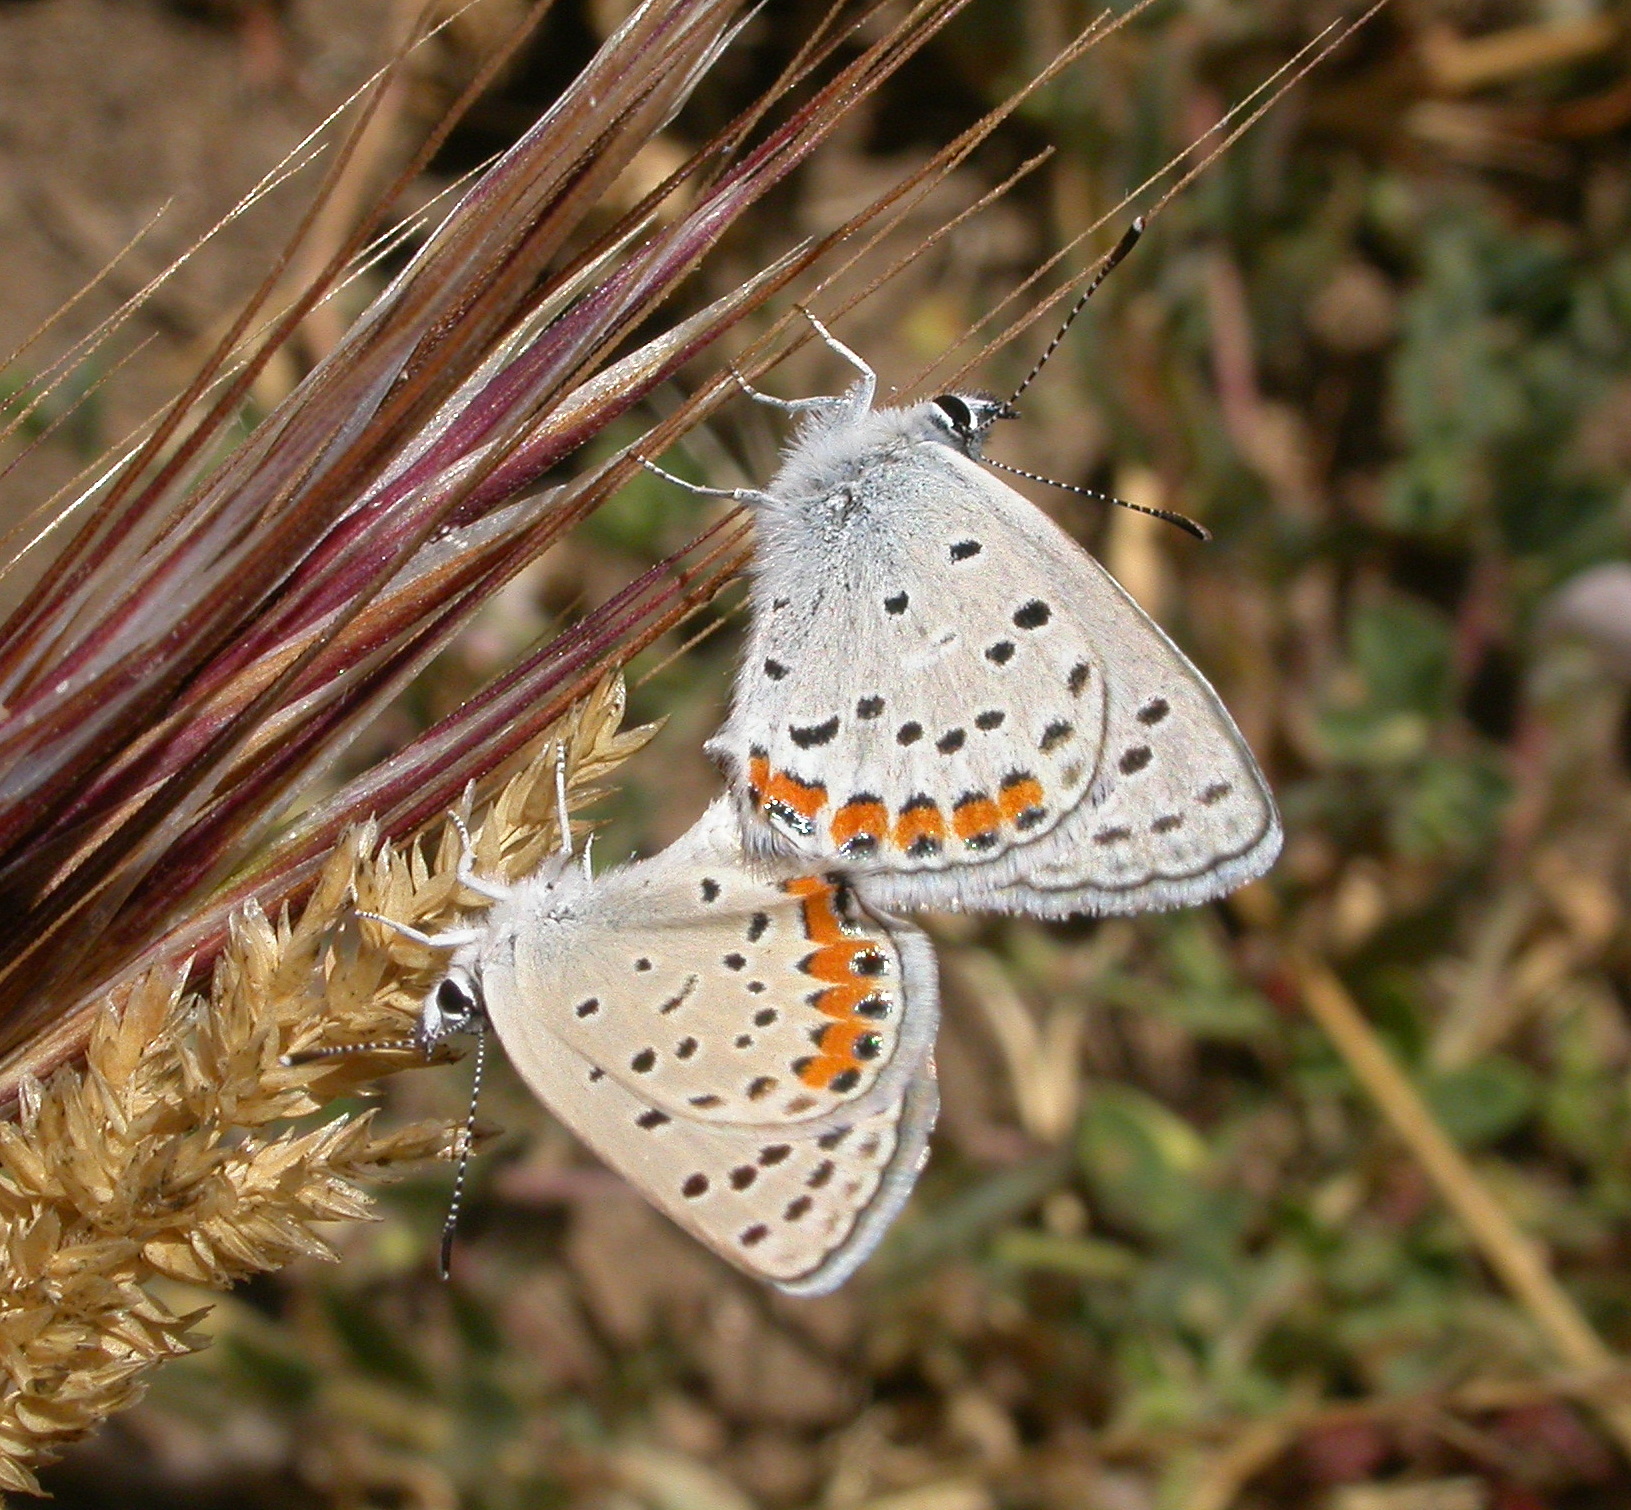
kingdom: Animalia
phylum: Arthropoda
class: Insecta
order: Lepidoptera
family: Lycaenidae
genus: Icaricia
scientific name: Icaricia lupini
